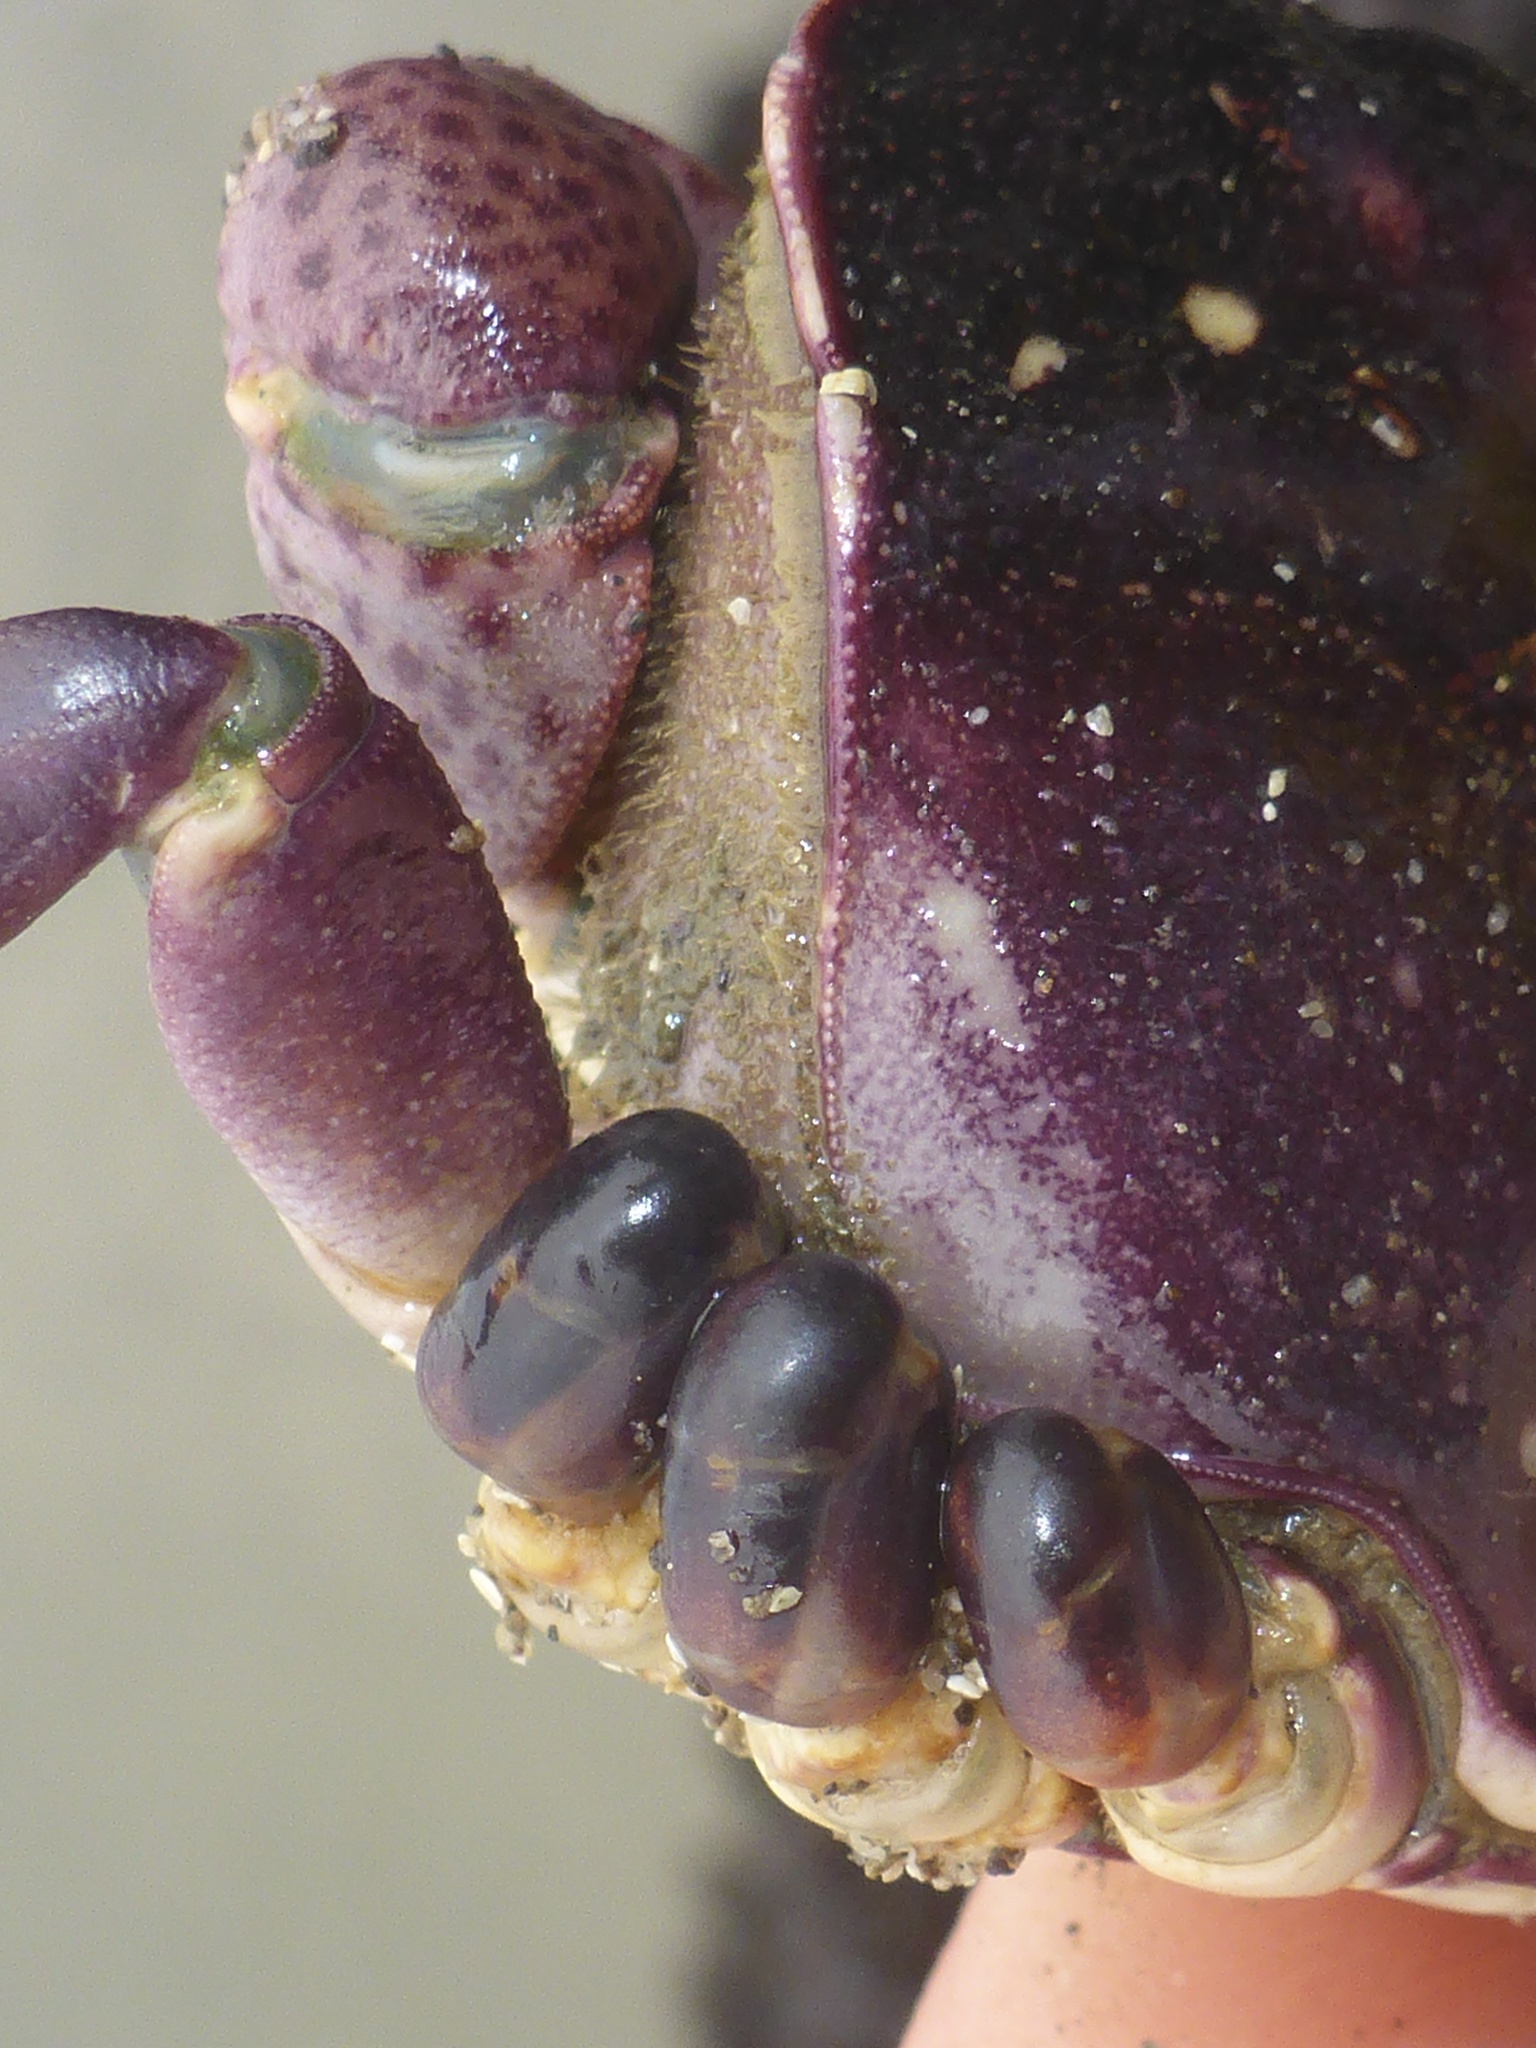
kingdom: Animalia
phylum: Arthropoda
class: Malacostraca
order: Decapoda
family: Varunidae
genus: Hemigrapsus
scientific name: Hemigrapsus nudus
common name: Purple shore crab
